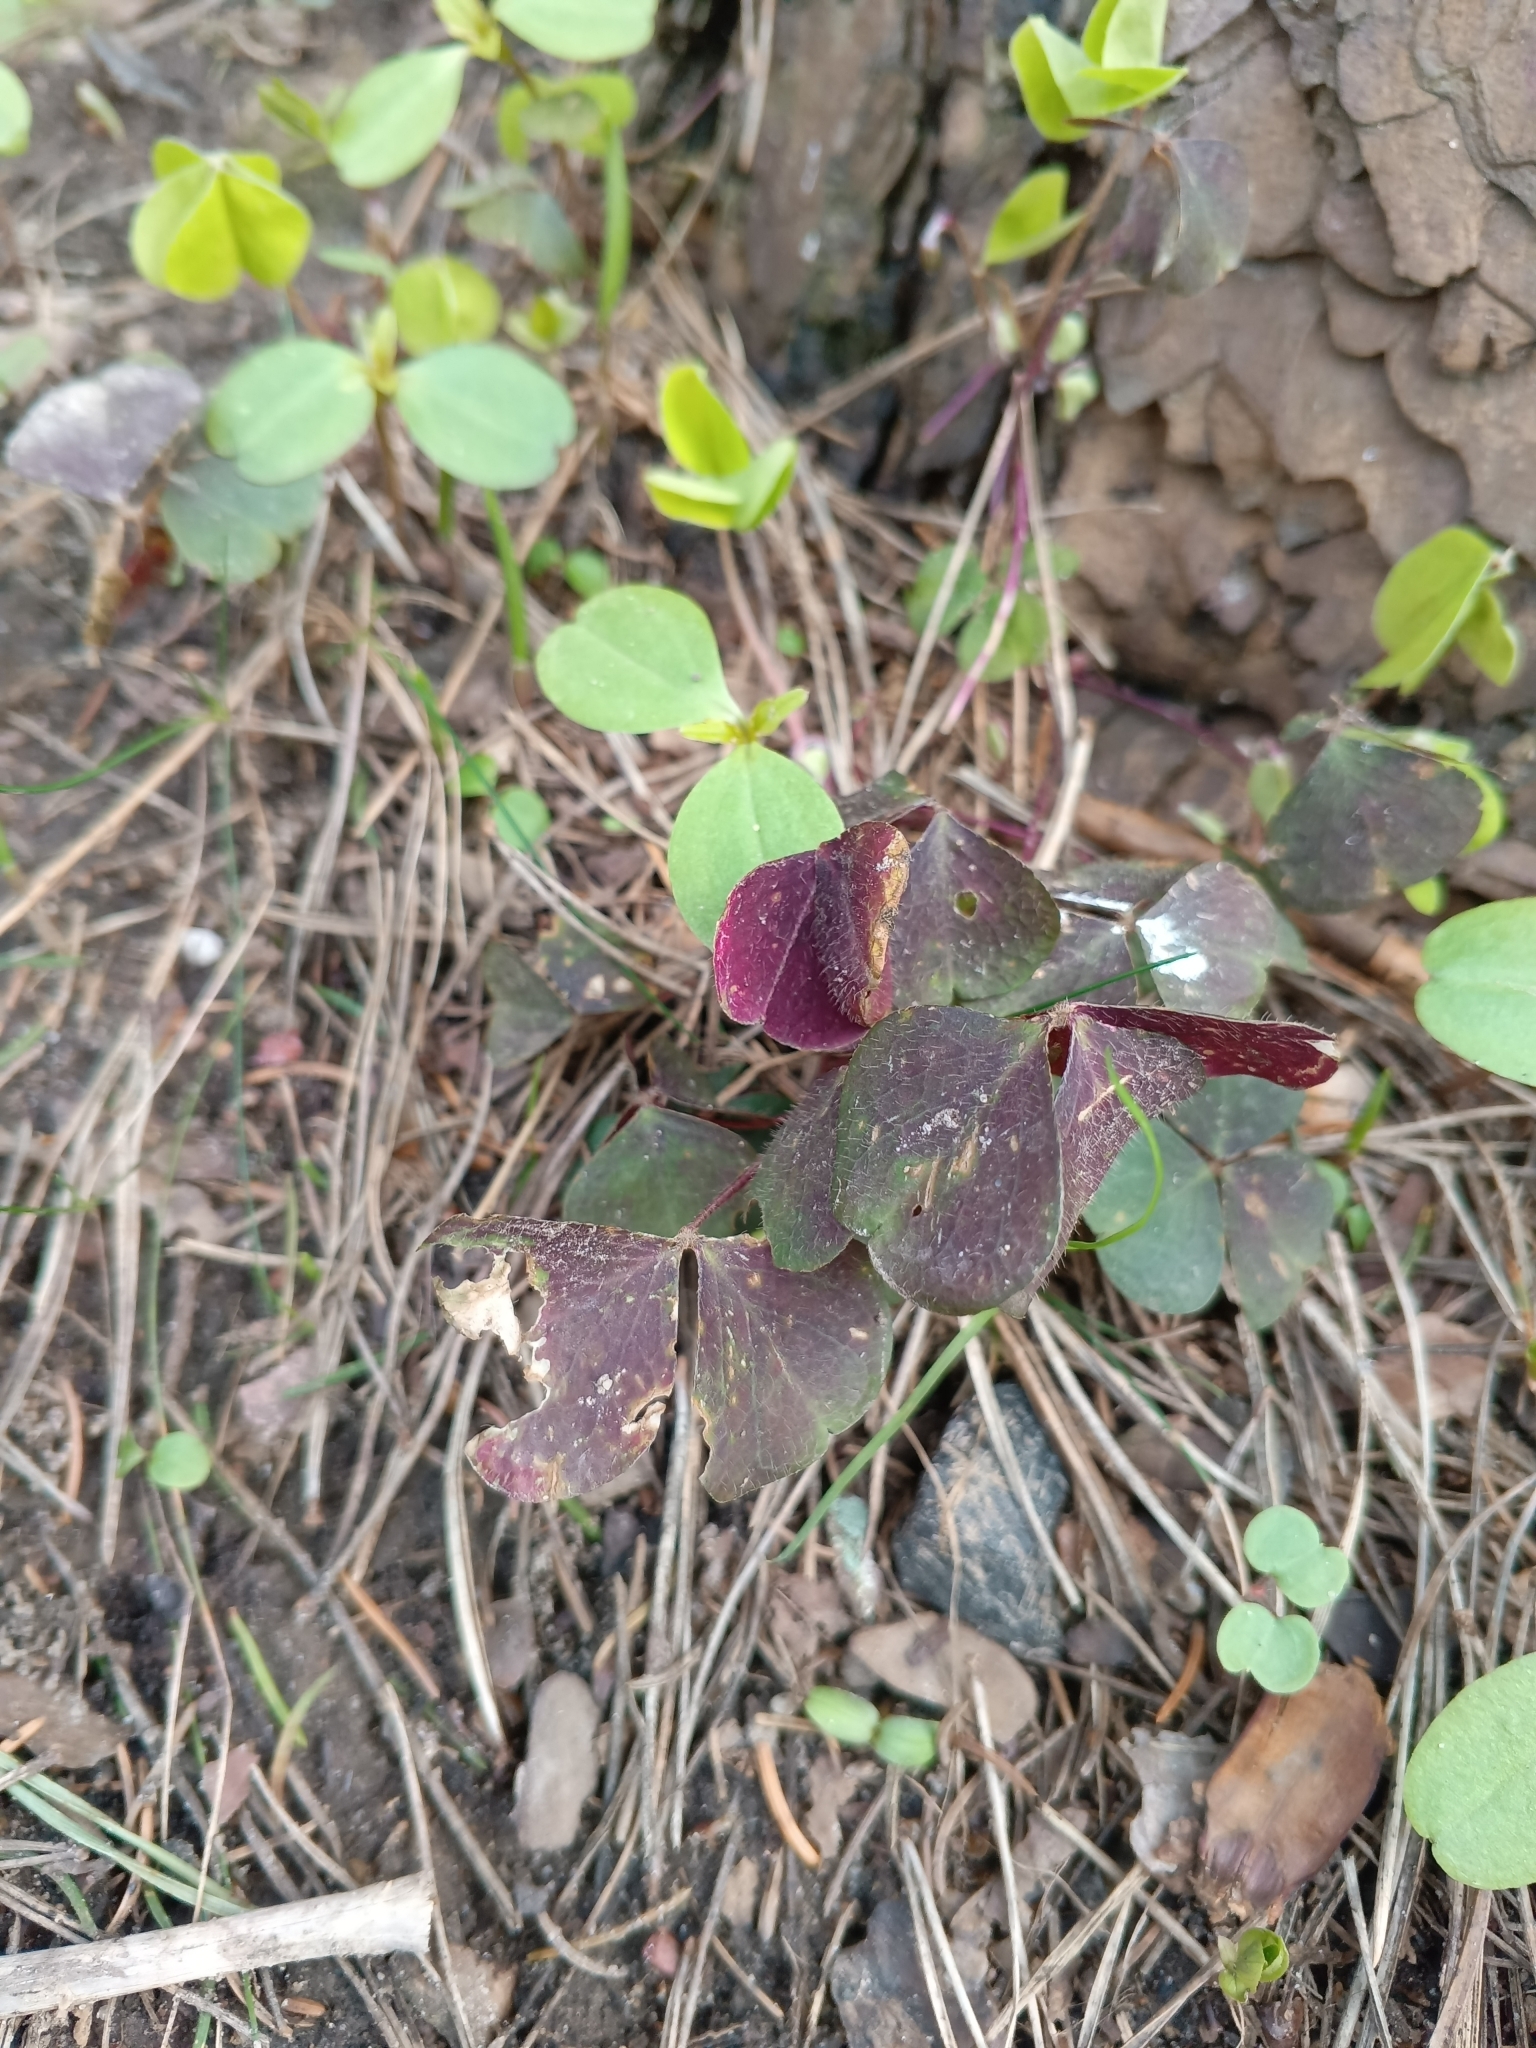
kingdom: Plantae
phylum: Tracheophyta
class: Magnoliopsida
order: Oxalidales
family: Oxalidaceae
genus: Oxalis
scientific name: Oxalis acetosella
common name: Wood-sorrel
